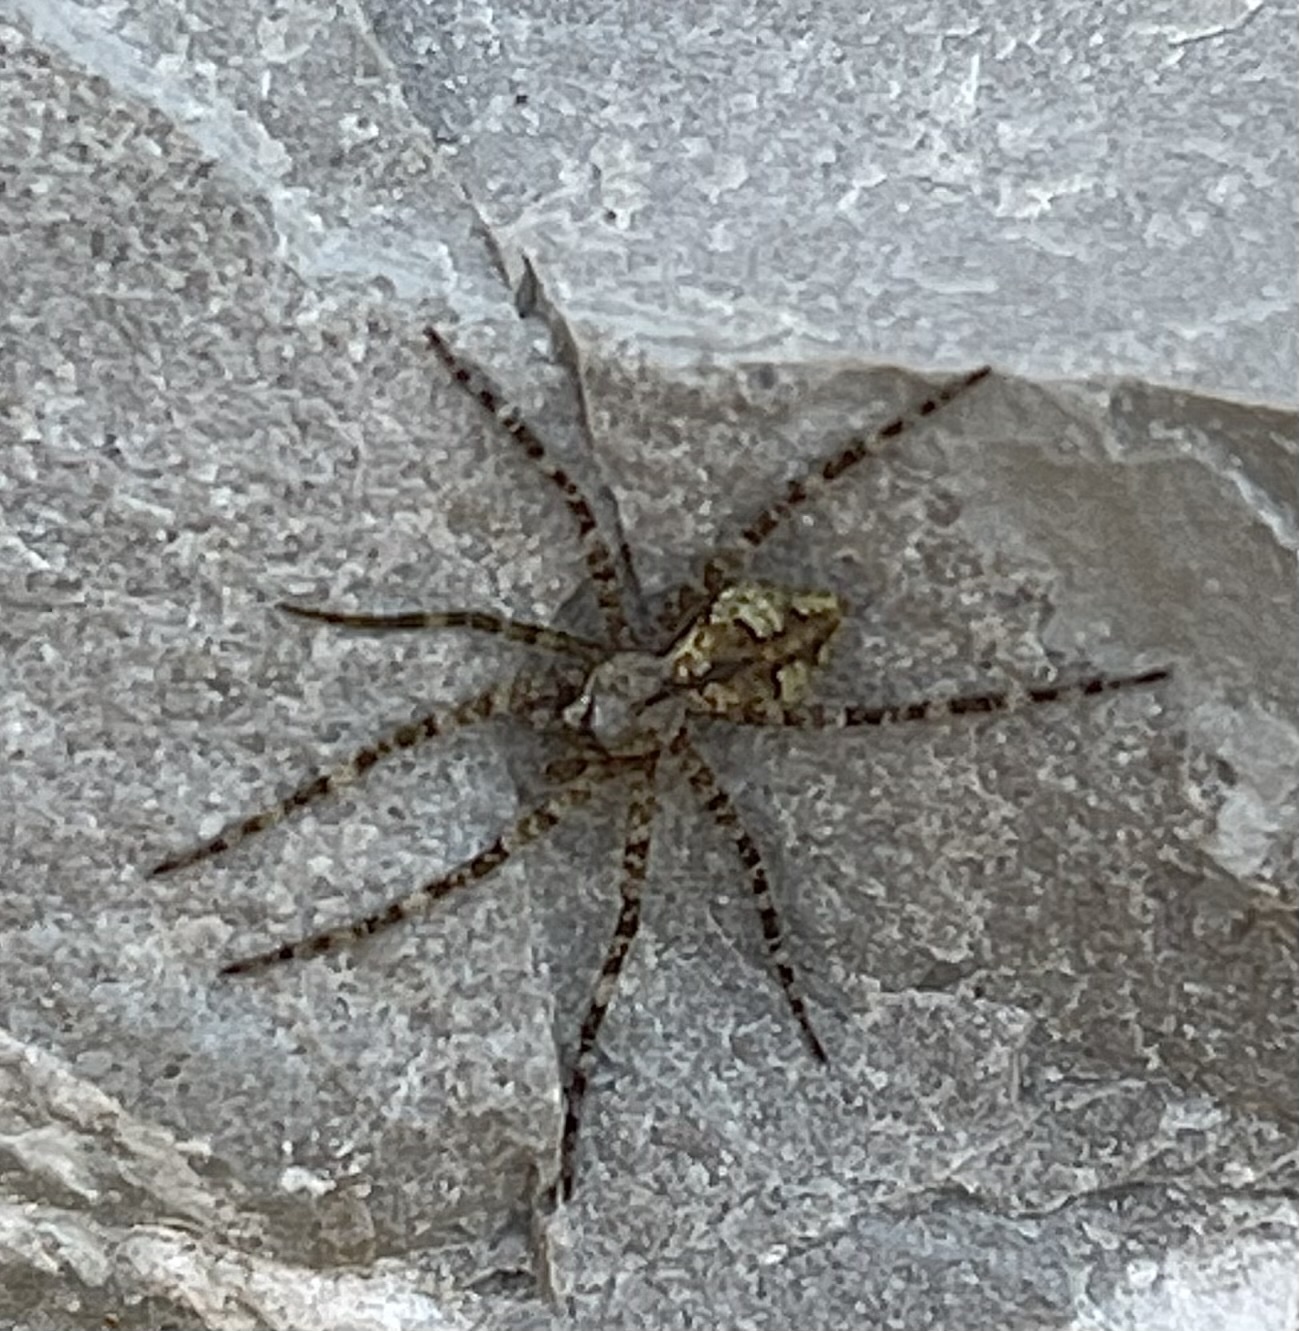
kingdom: Animalia
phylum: Arthropoda
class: Arachnida
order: Araneae
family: Pisauridae
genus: Dolomedes
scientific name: Dolomedes albineus
